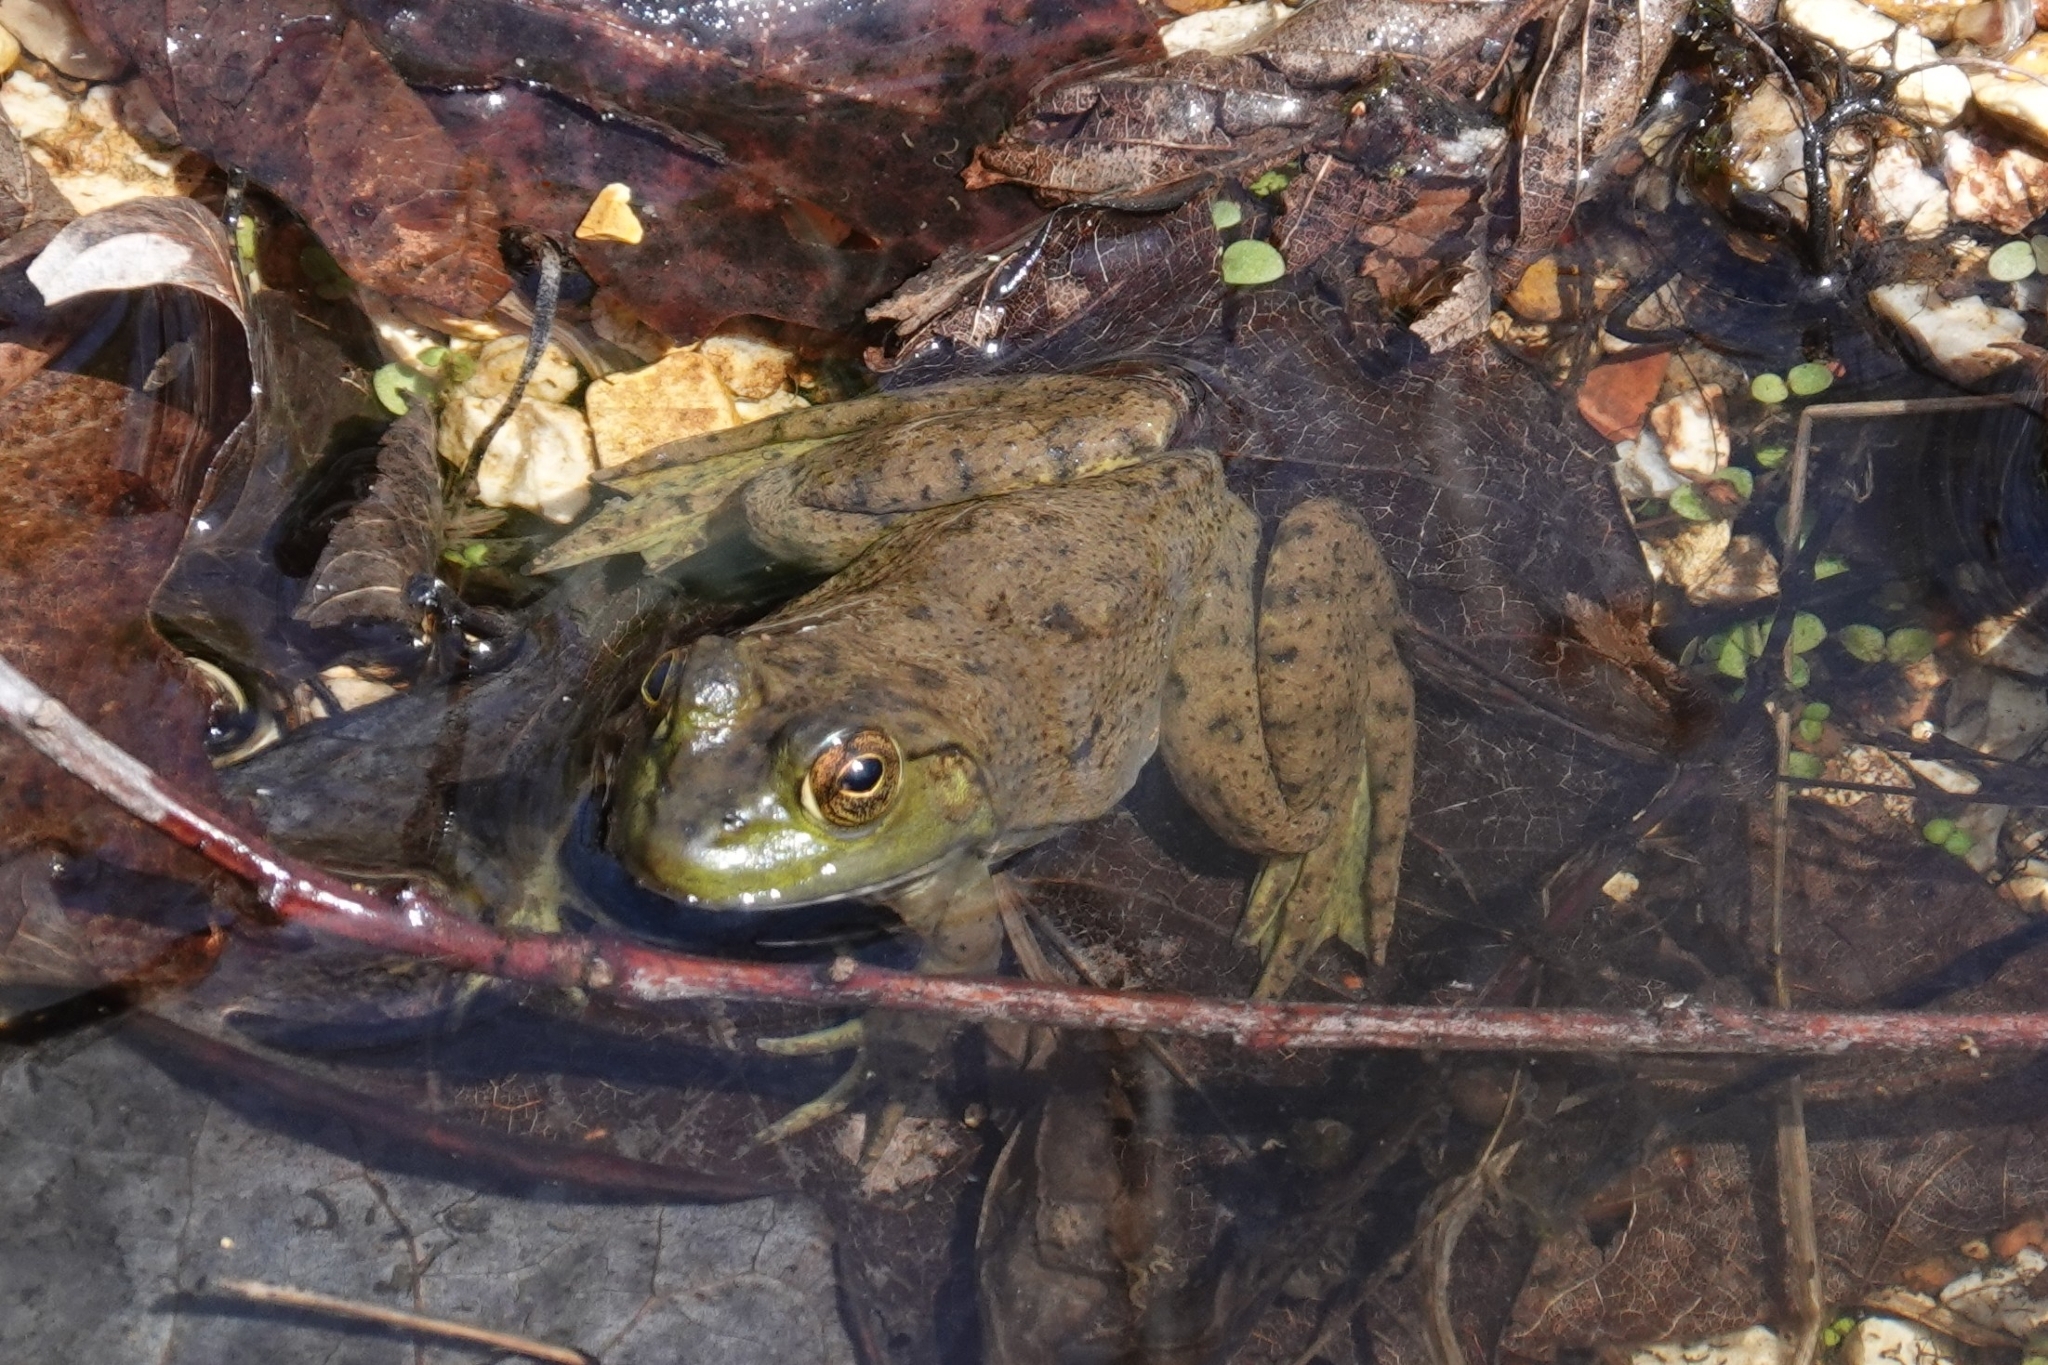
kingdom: Animalia
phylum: Chordata
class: Amphibia
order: Anura
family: Ranidae
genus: Lithobates
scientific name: Lithobates catesbeianus
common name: American bullfrog
